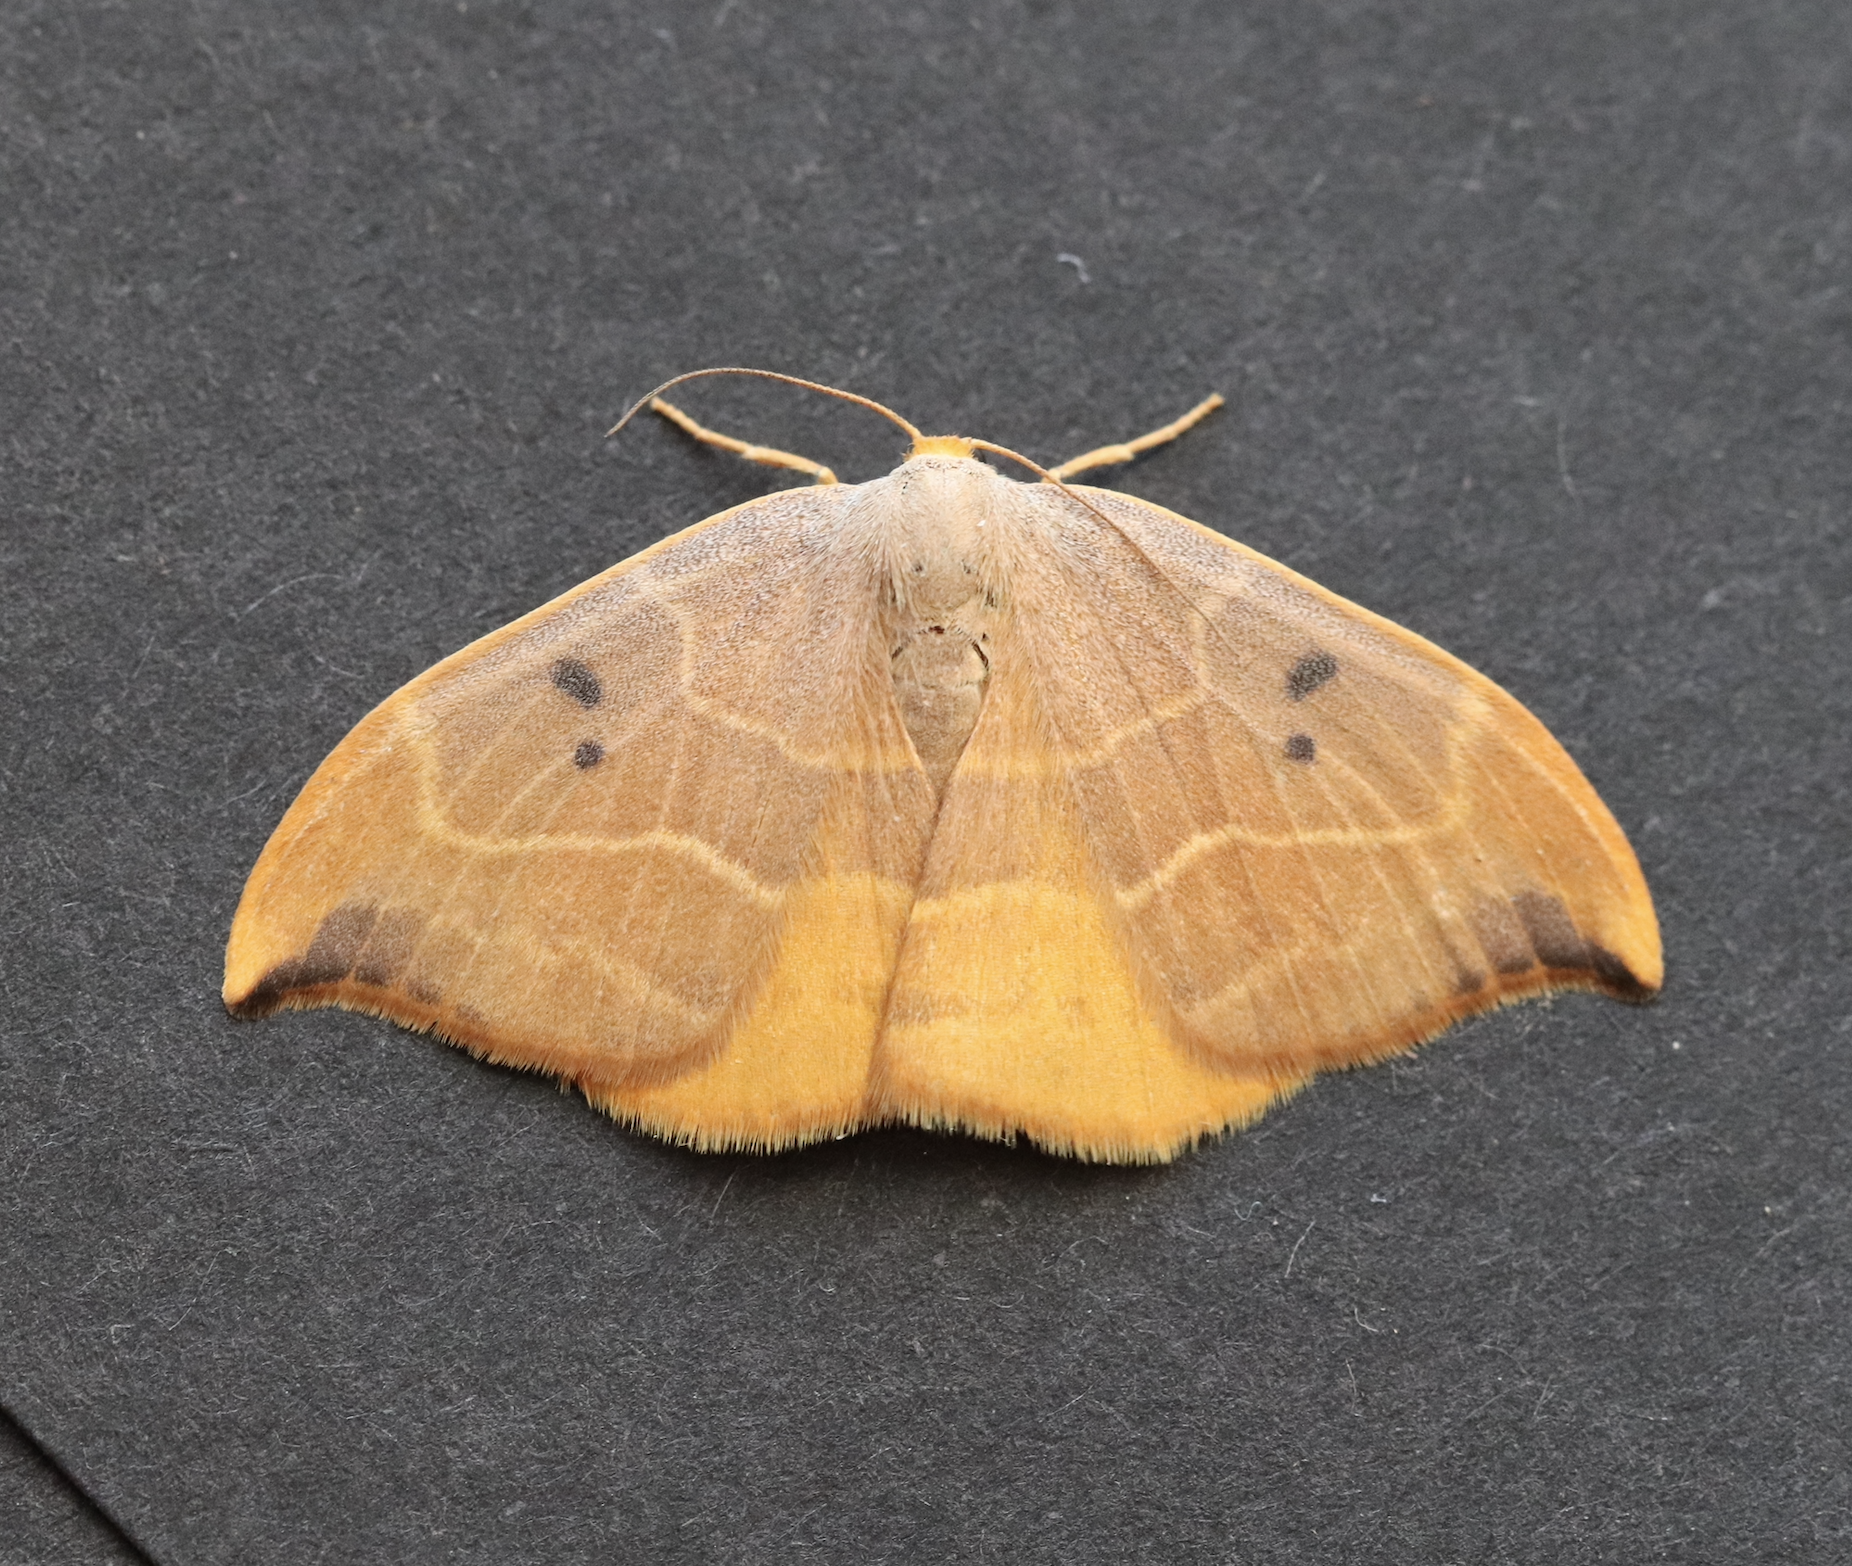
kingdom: Animalia
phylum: Arthropoda
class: Insecta
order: Lepidoptera
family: Drepanidae
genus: Watsonalla
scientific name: Watsonalla binaria
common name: Oak hook-tip
